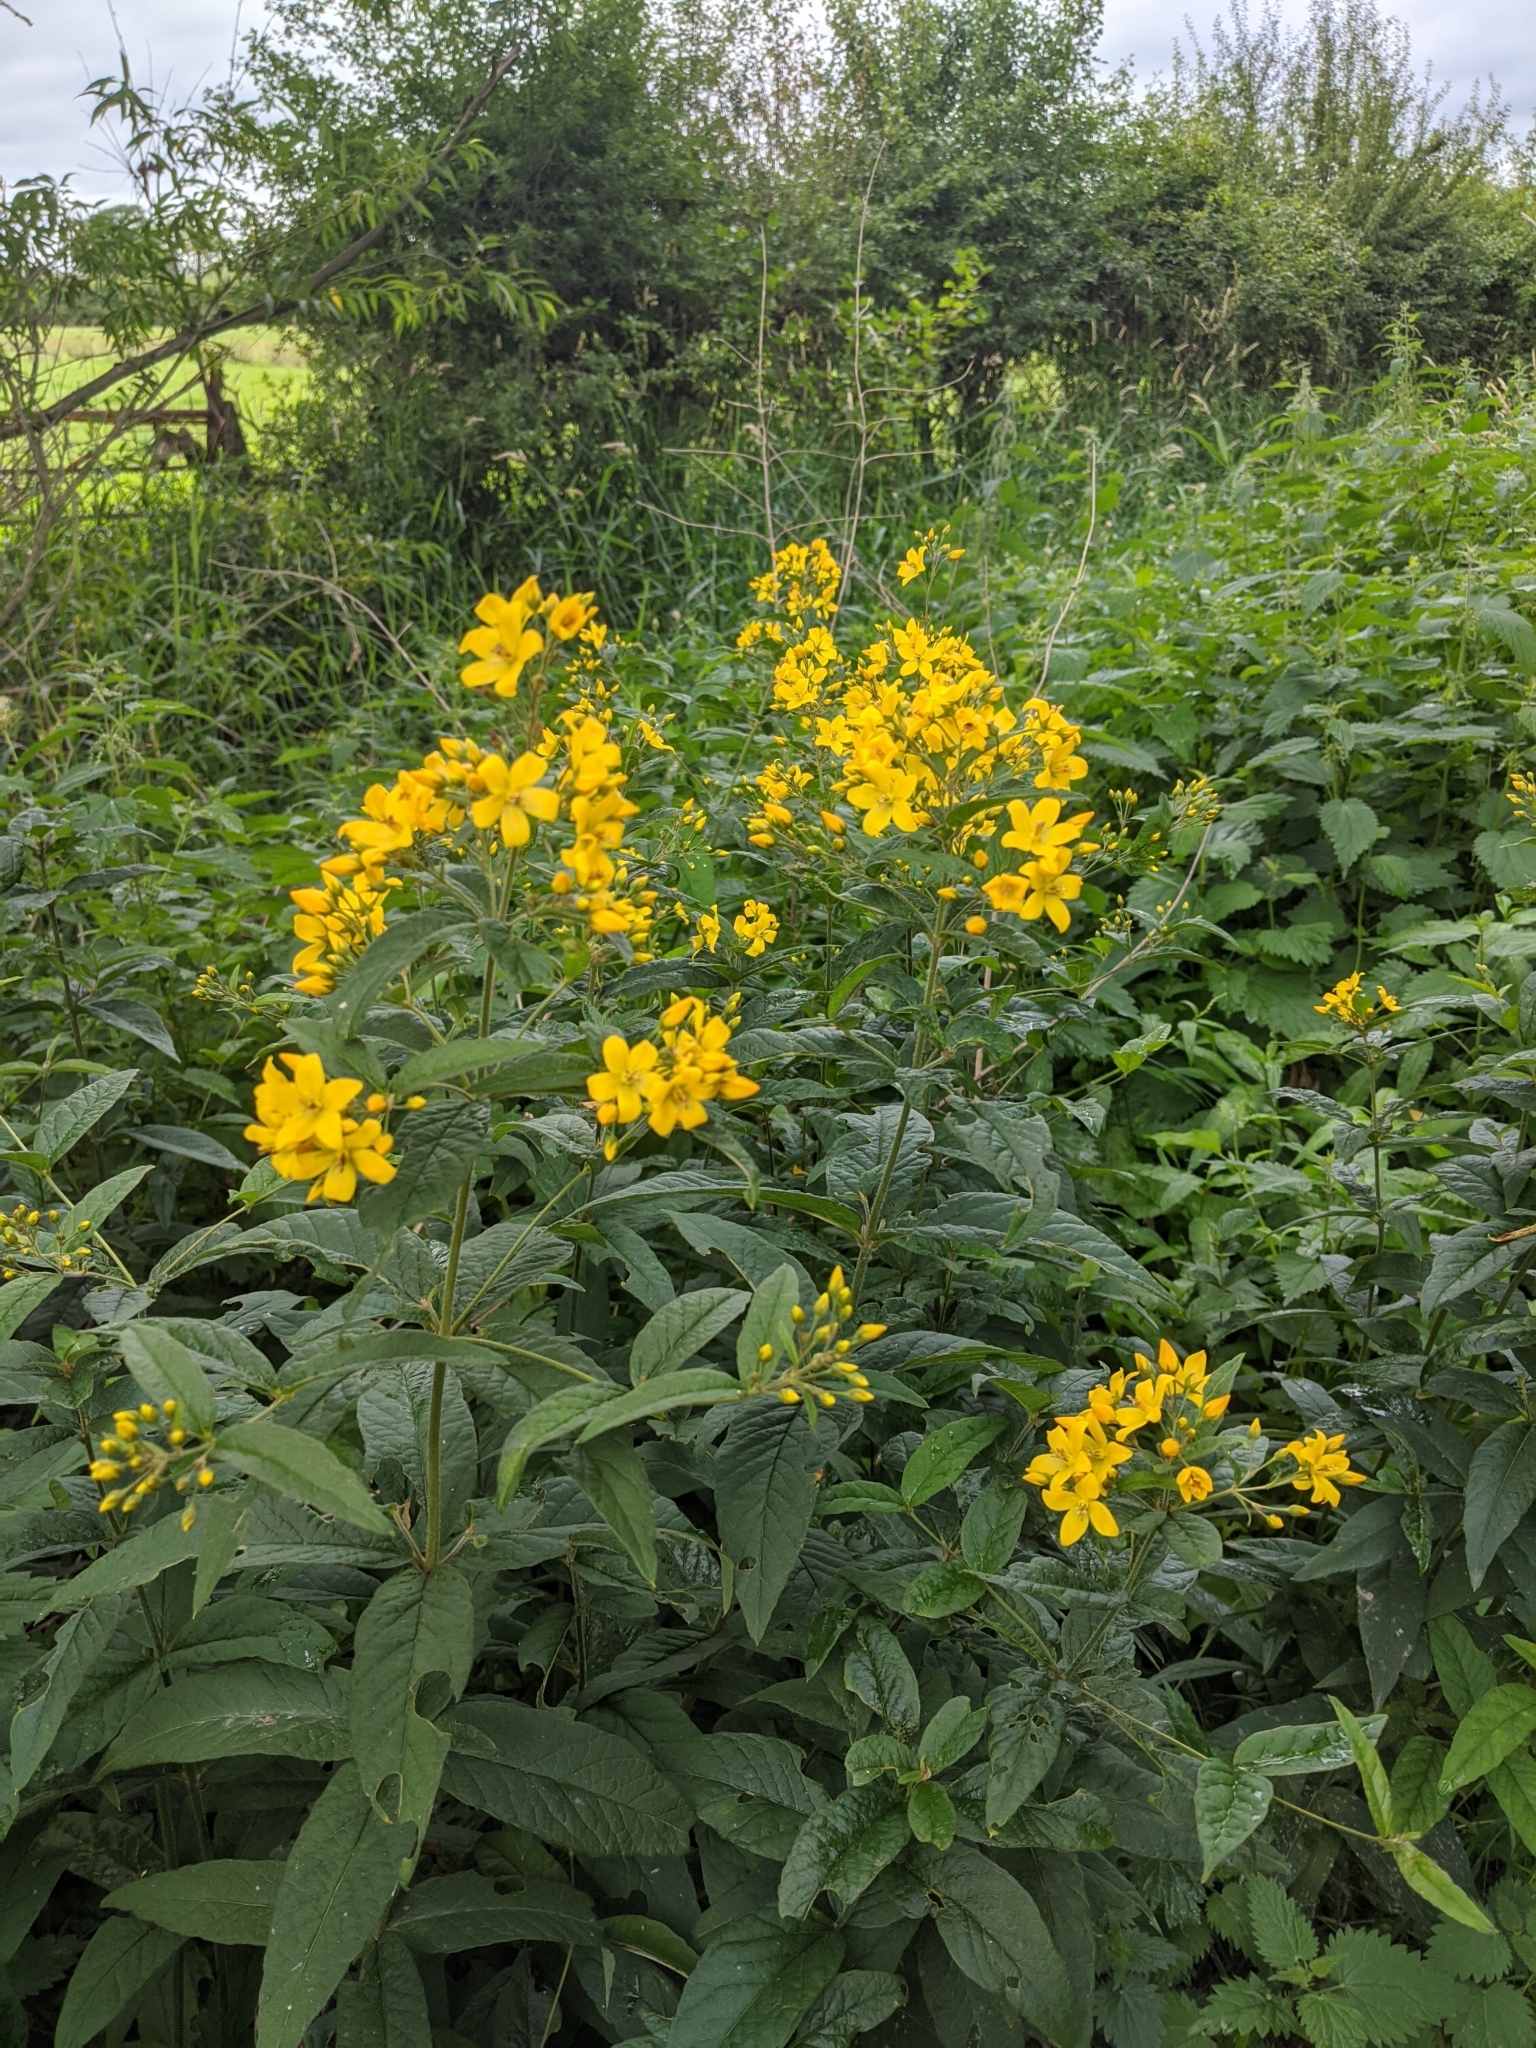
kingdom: Plantae
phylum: Tracheophyta
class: Magnoliopsida
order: Ericales
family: Primulaceae
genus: Lysimachia
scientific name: Lysimachia vulgaris
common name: Yellow loosestrife
